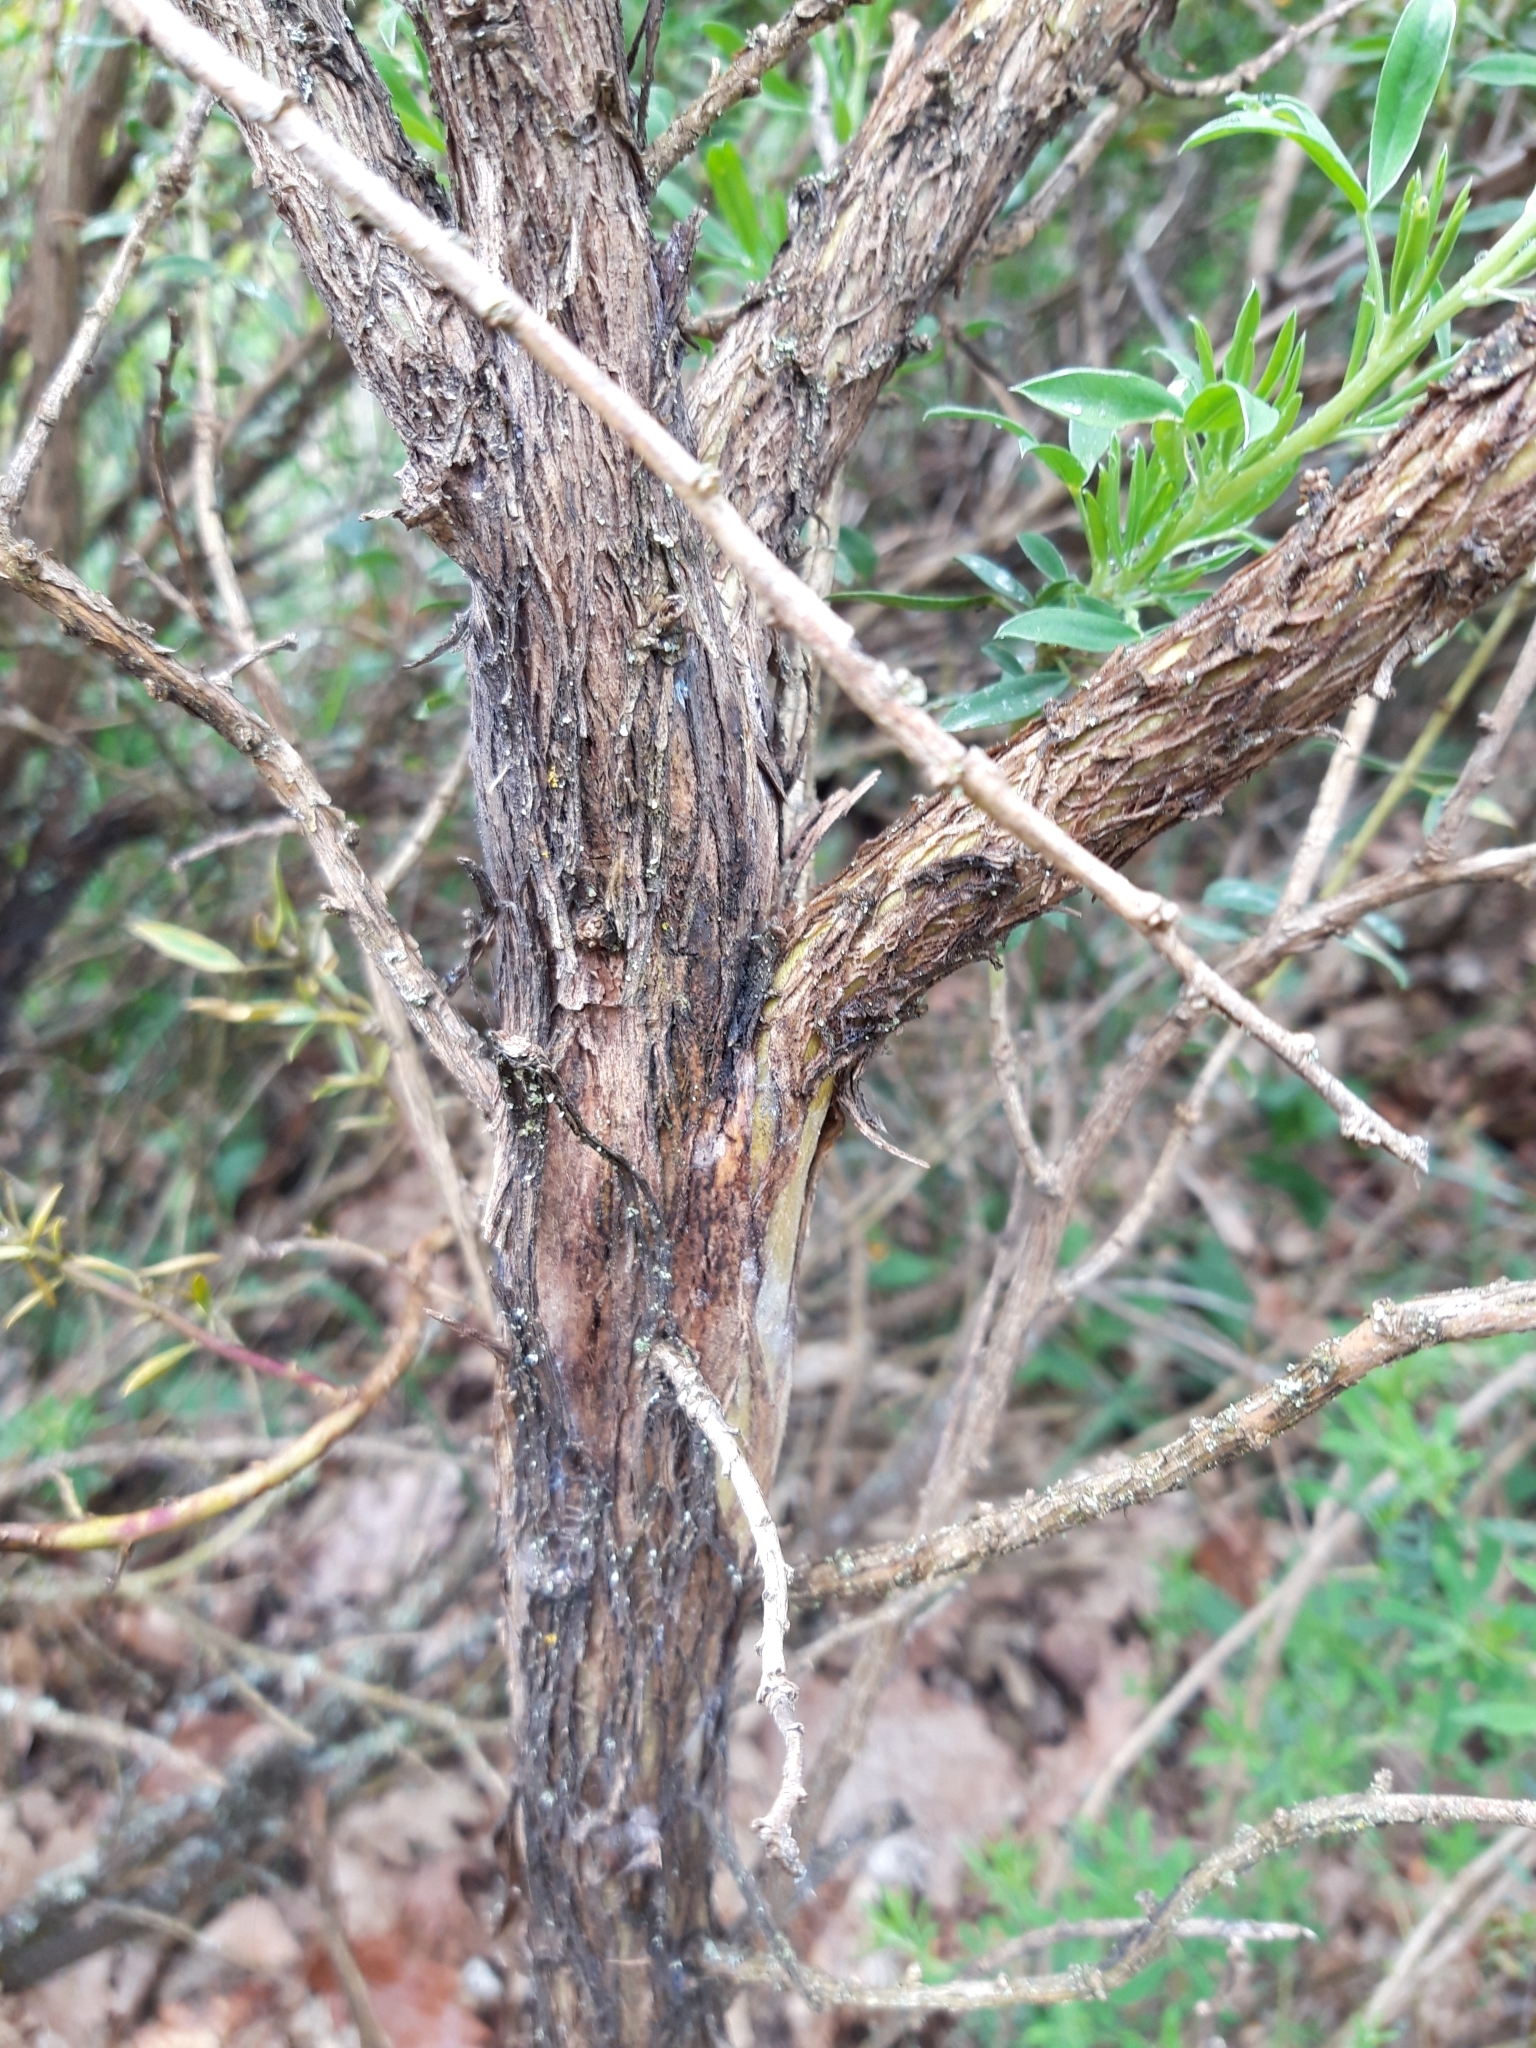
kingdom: Plantae
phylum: Tracheophyta
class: Magnoliopsida
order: Fabales
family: Fabaceae
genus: Adenocarpus
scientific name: Adenocarpus hispanicus
